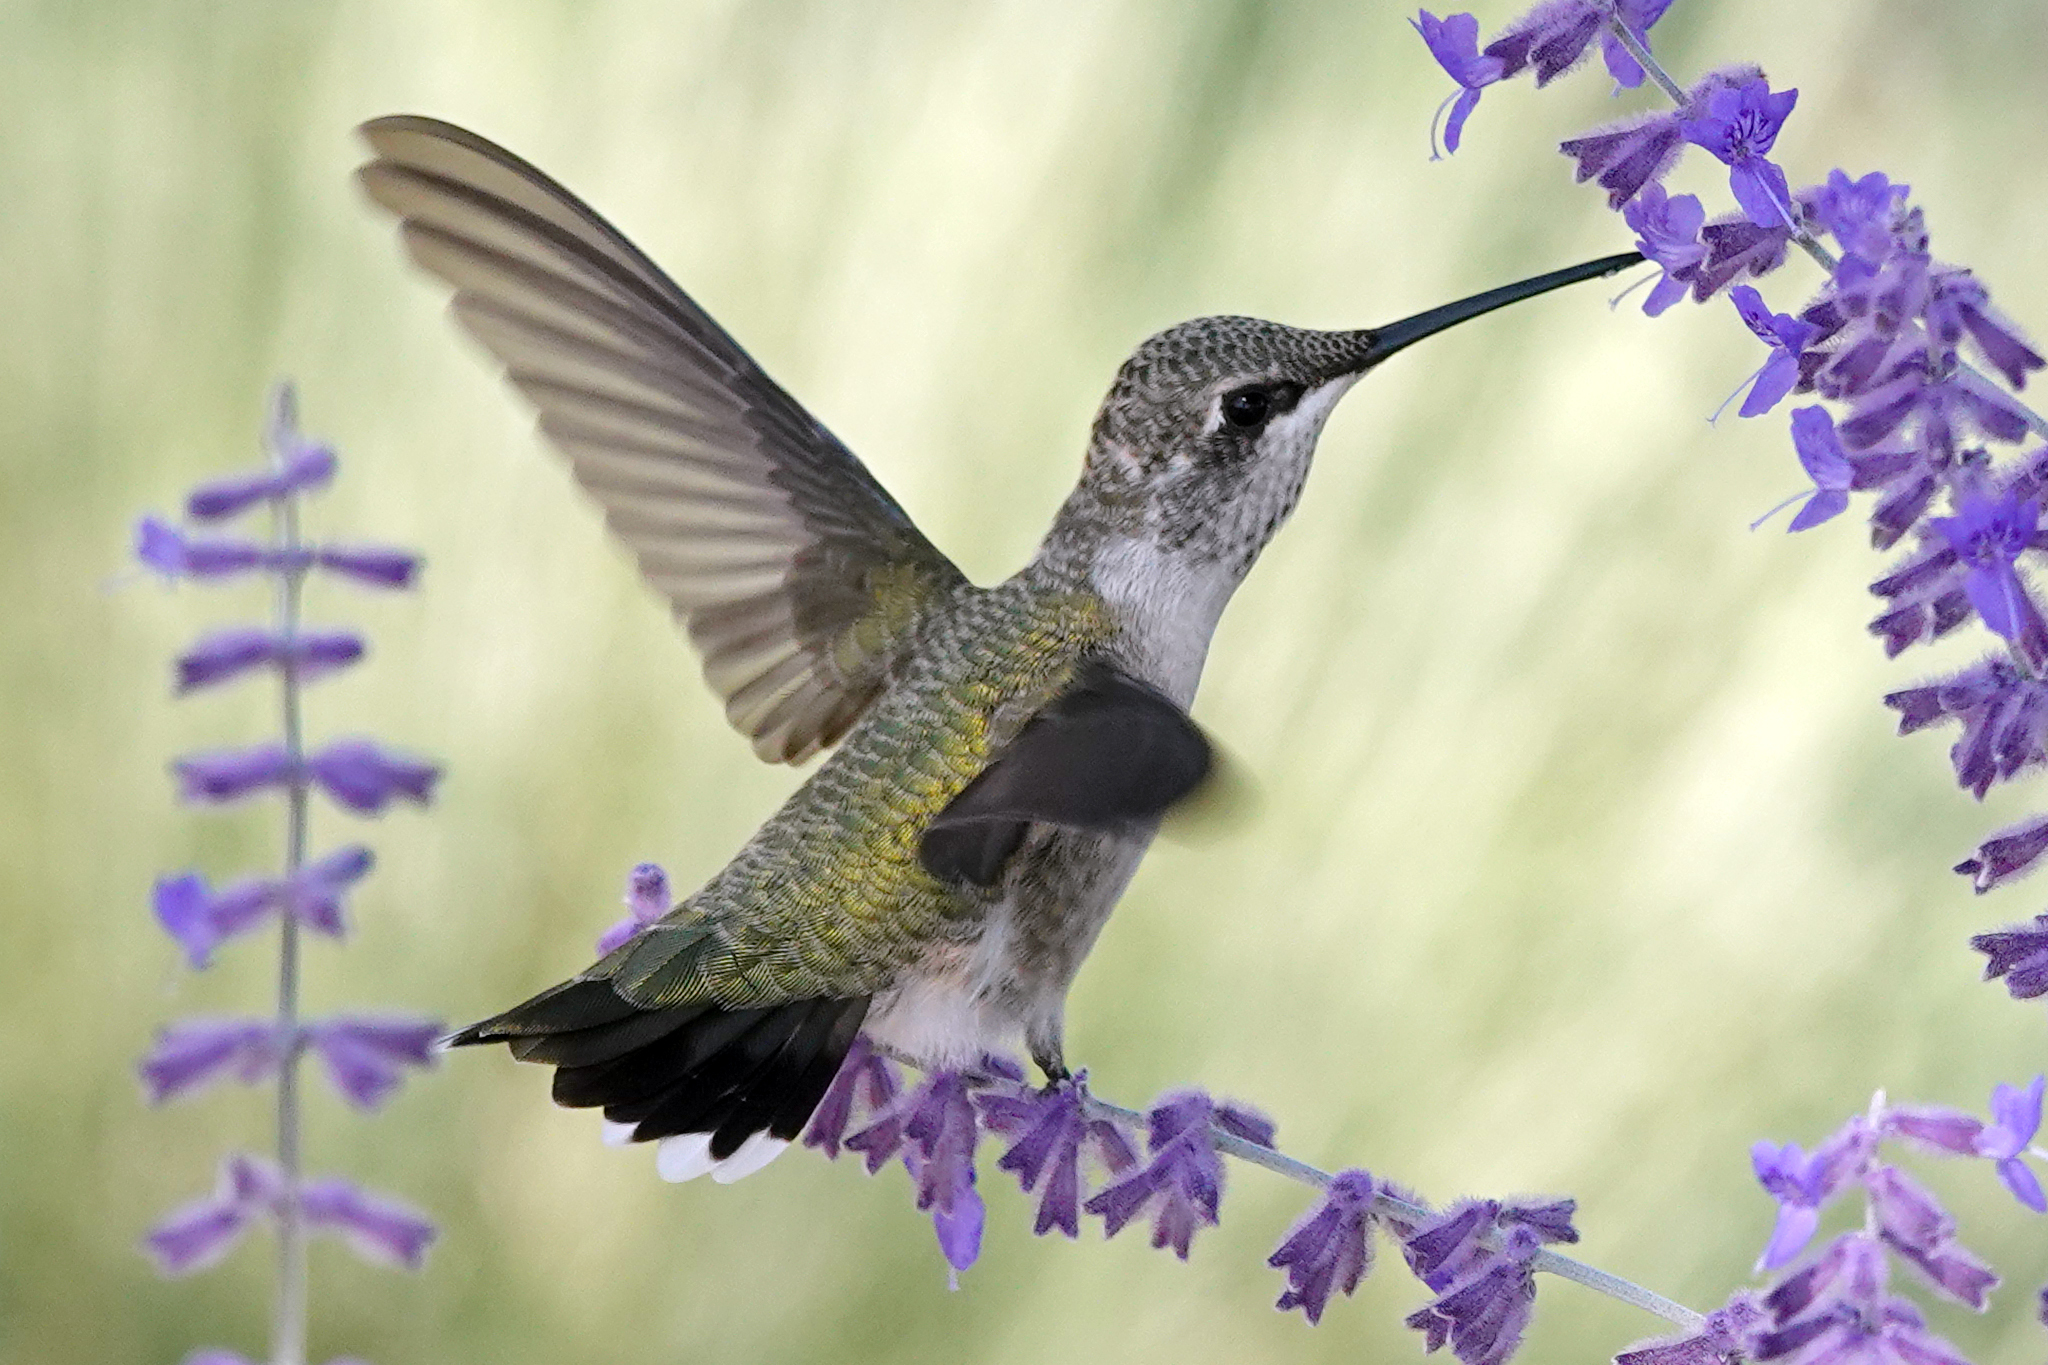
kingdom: Animalia
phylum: Chordata
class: Aves
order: Apodiformes
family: Trochilidae
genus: Archilochus
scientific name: Archilochus alexandri
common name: Black-chinned hummingbird
